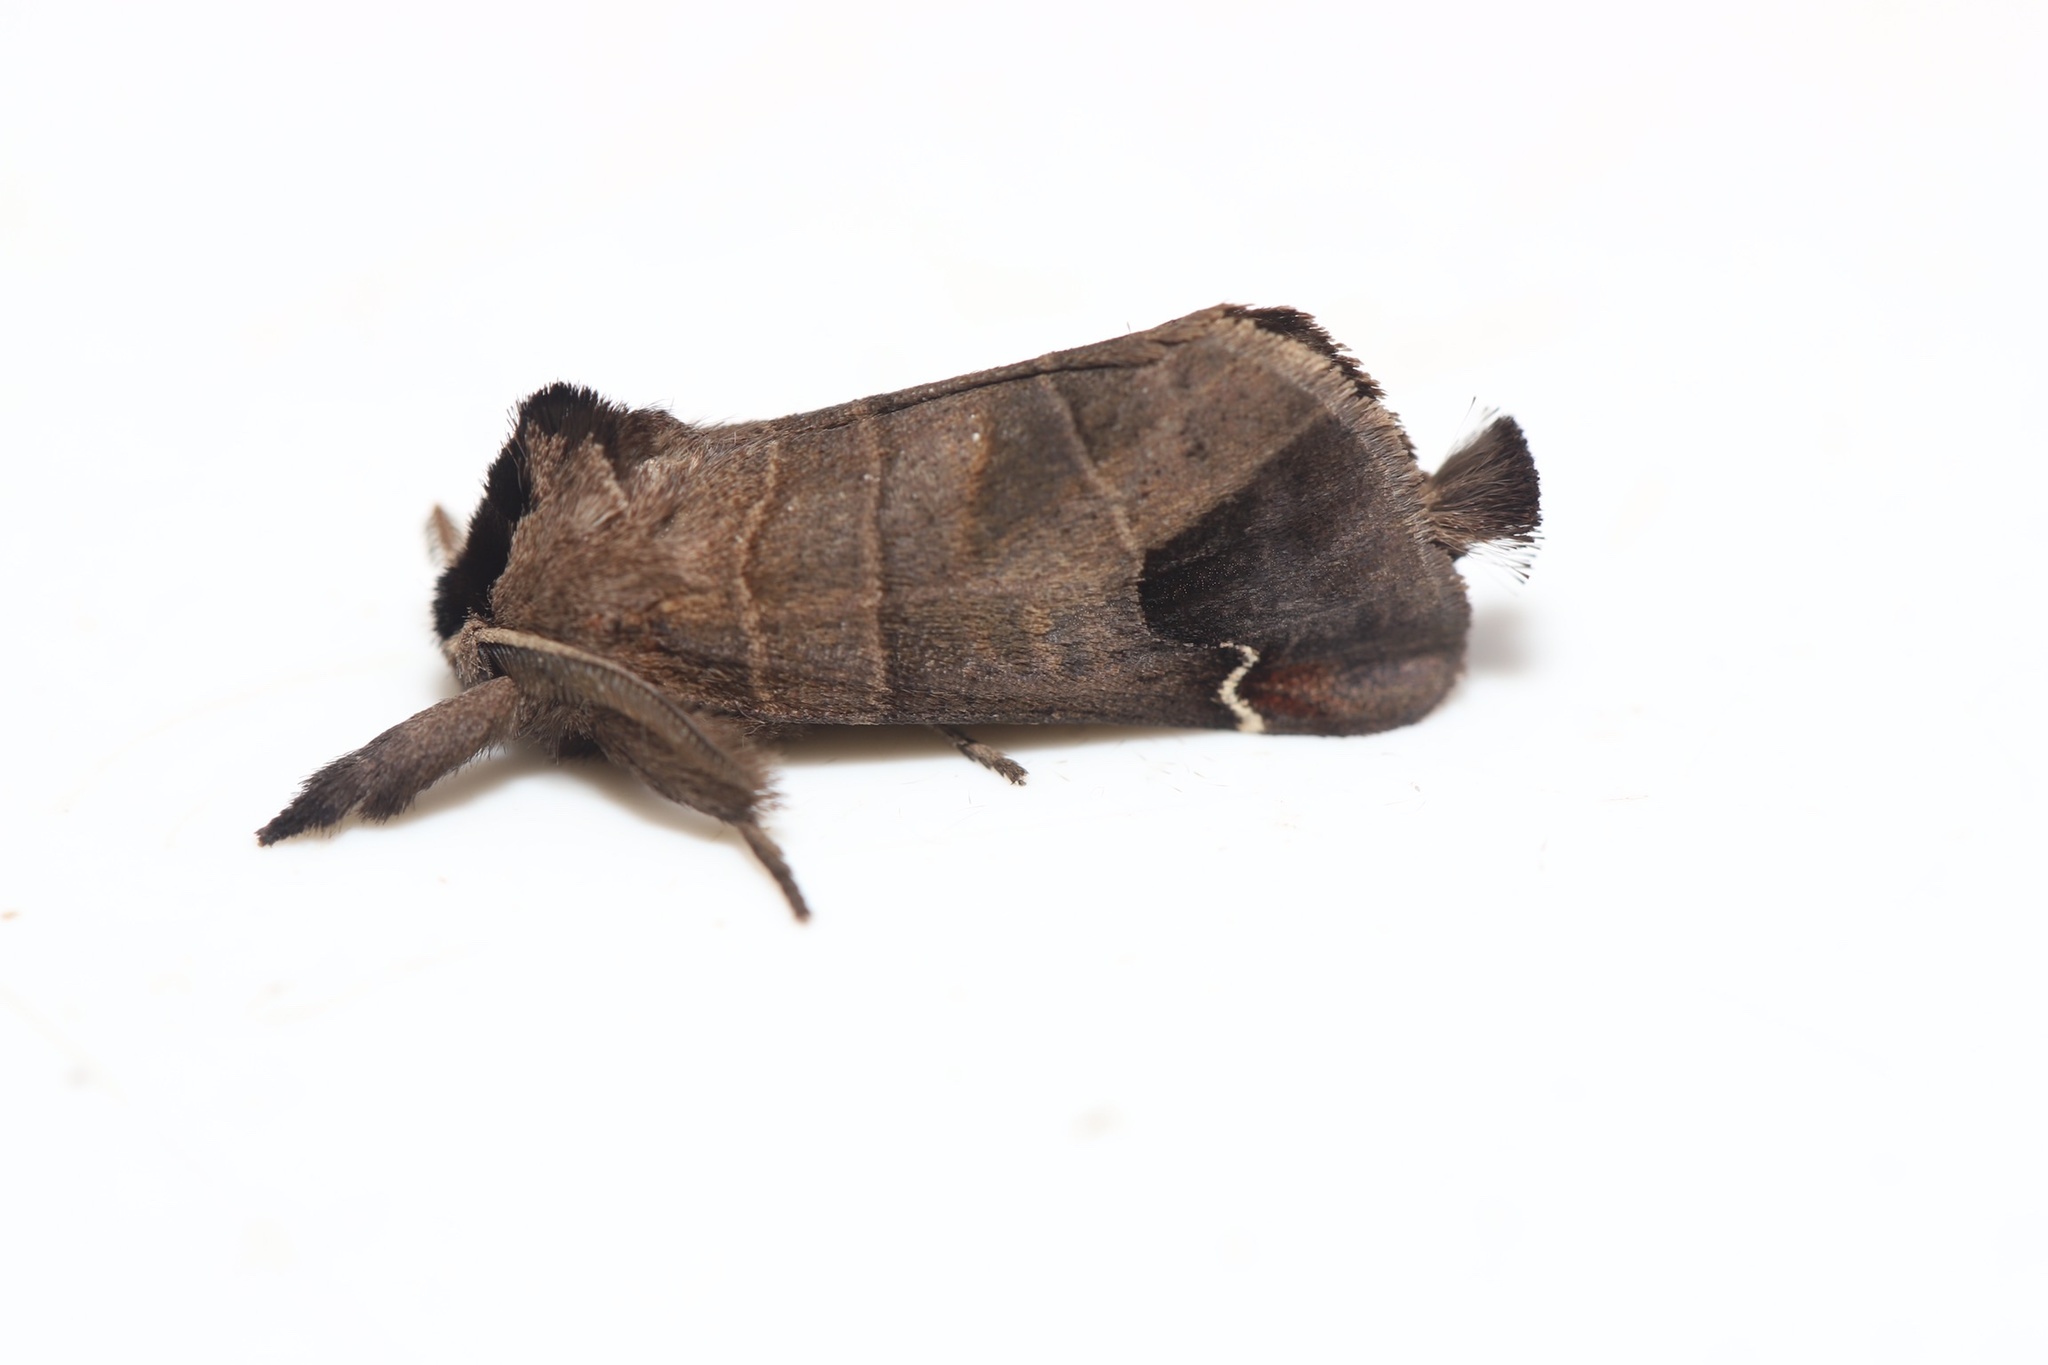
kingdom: Animalia
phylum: Arthropoda
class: Insecta
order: Lepidoptera
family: Notodontidae
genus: Clostera
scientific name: Clostera albosigma
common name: Sigmoid prominent
